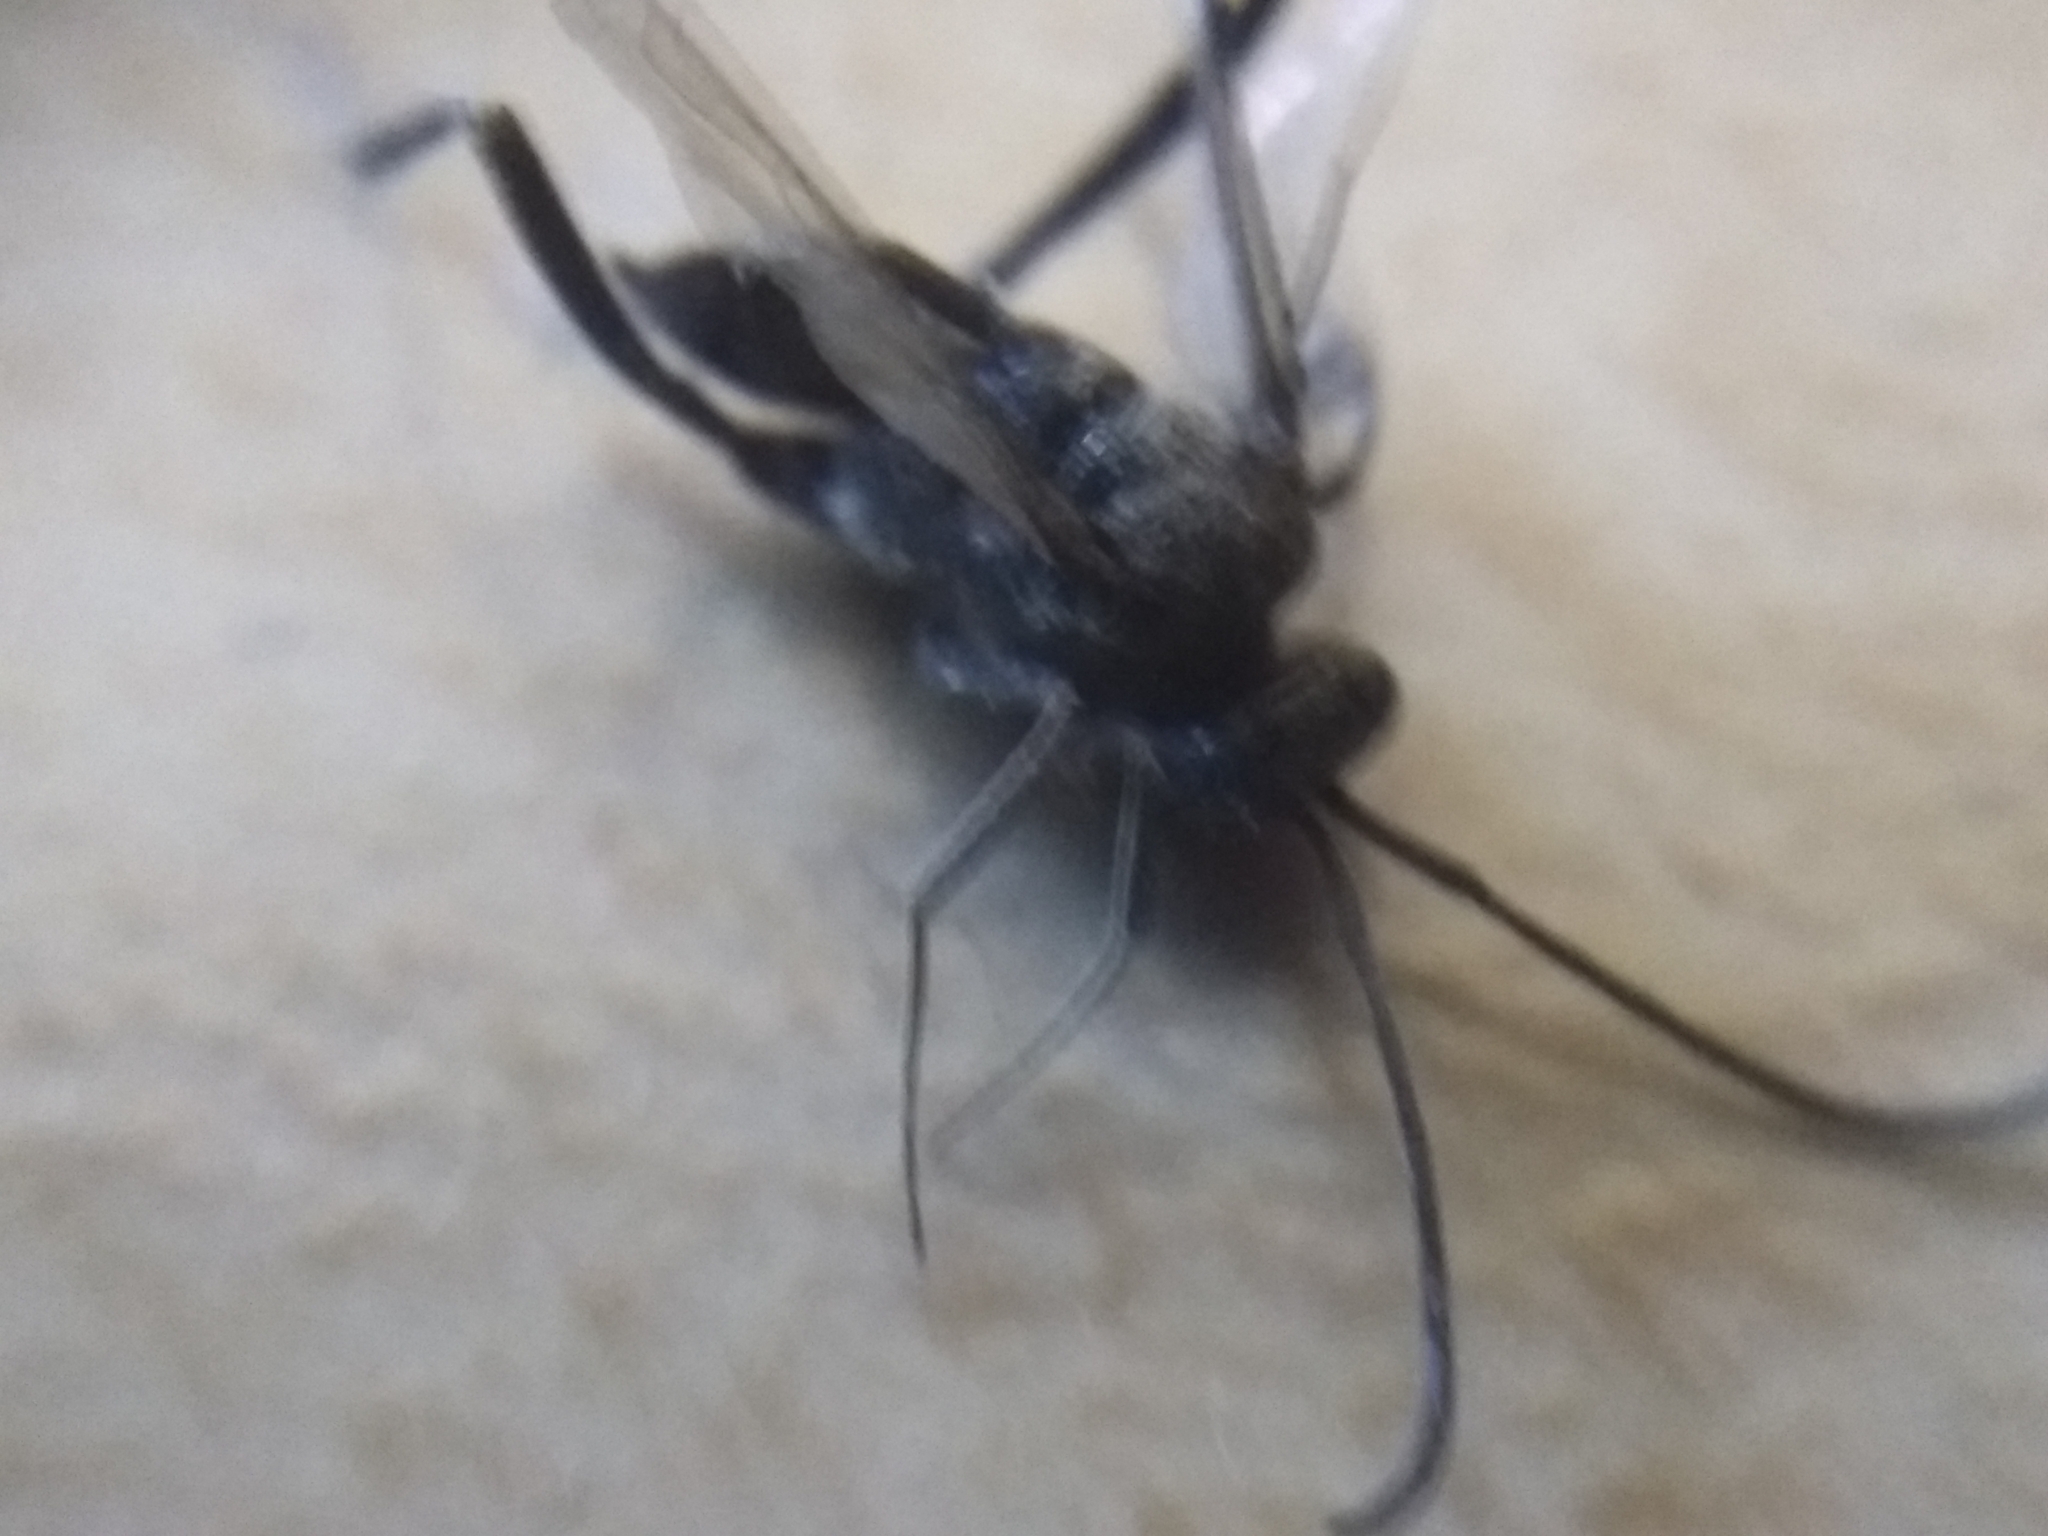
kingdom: Animalia
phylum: Arthropoda
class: Insecta
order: Hymenoptera
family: Evaniidae
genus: Evania
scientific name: Evania appendigaster
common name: Ensign wasp
